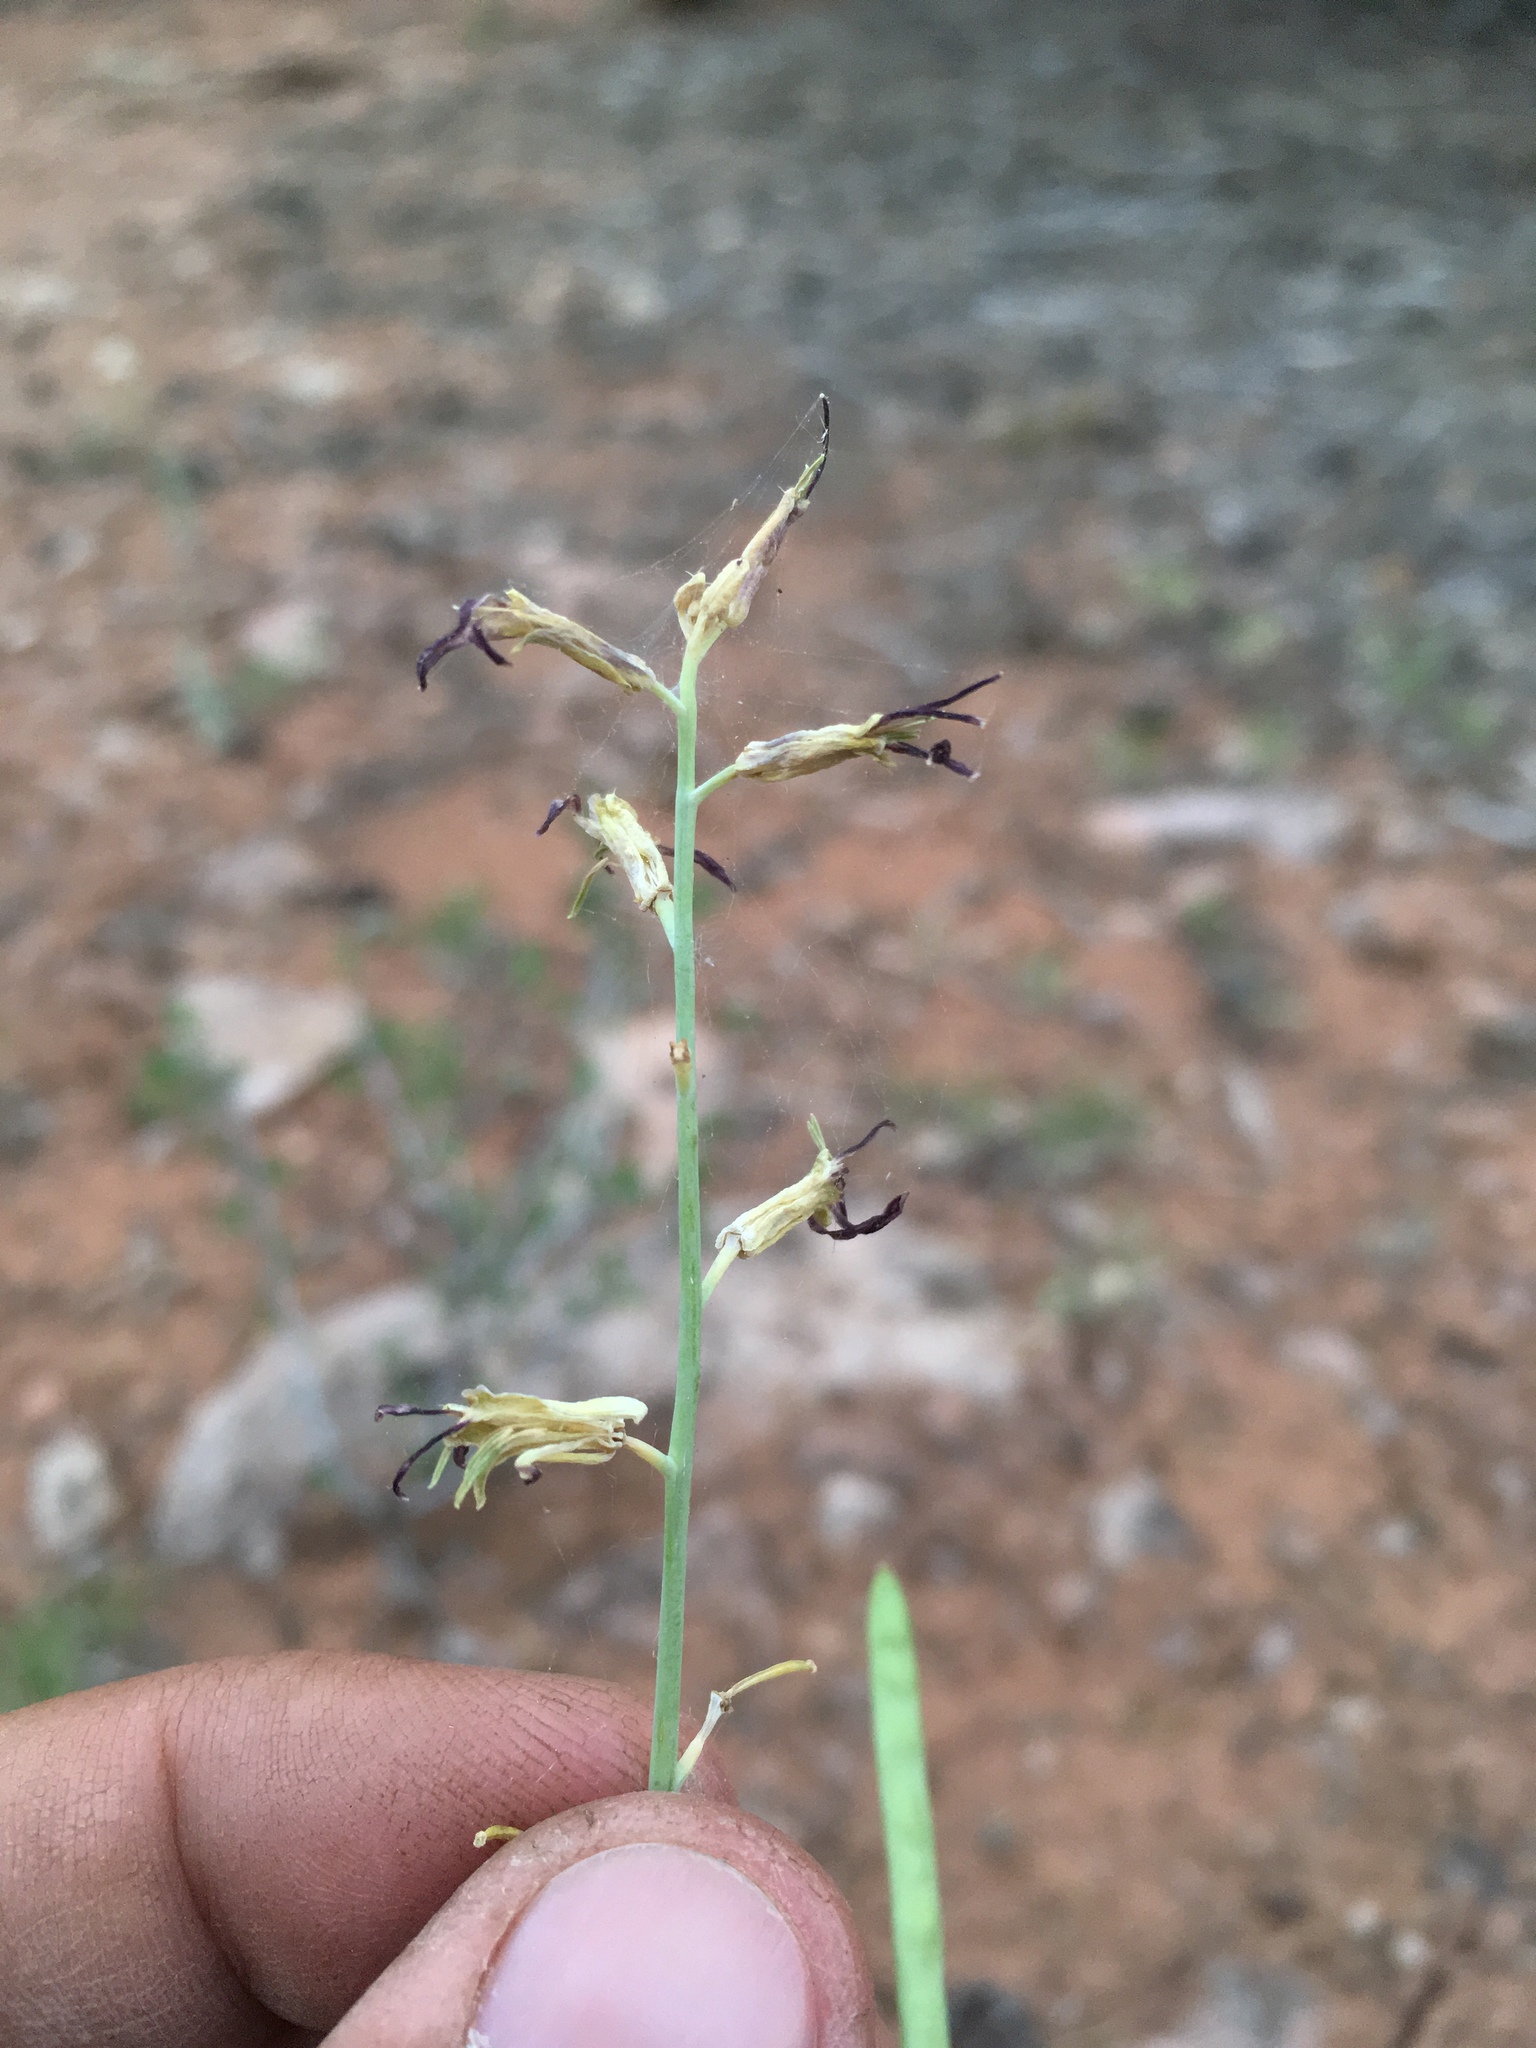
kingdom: Plantae
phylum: Tracheophyta
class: Magnoliopsida
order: Brassicales
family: Brassicaceae
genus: Streptanthus
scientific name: Streptanthus cordatus
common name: Heart-leaf jewel-flower
